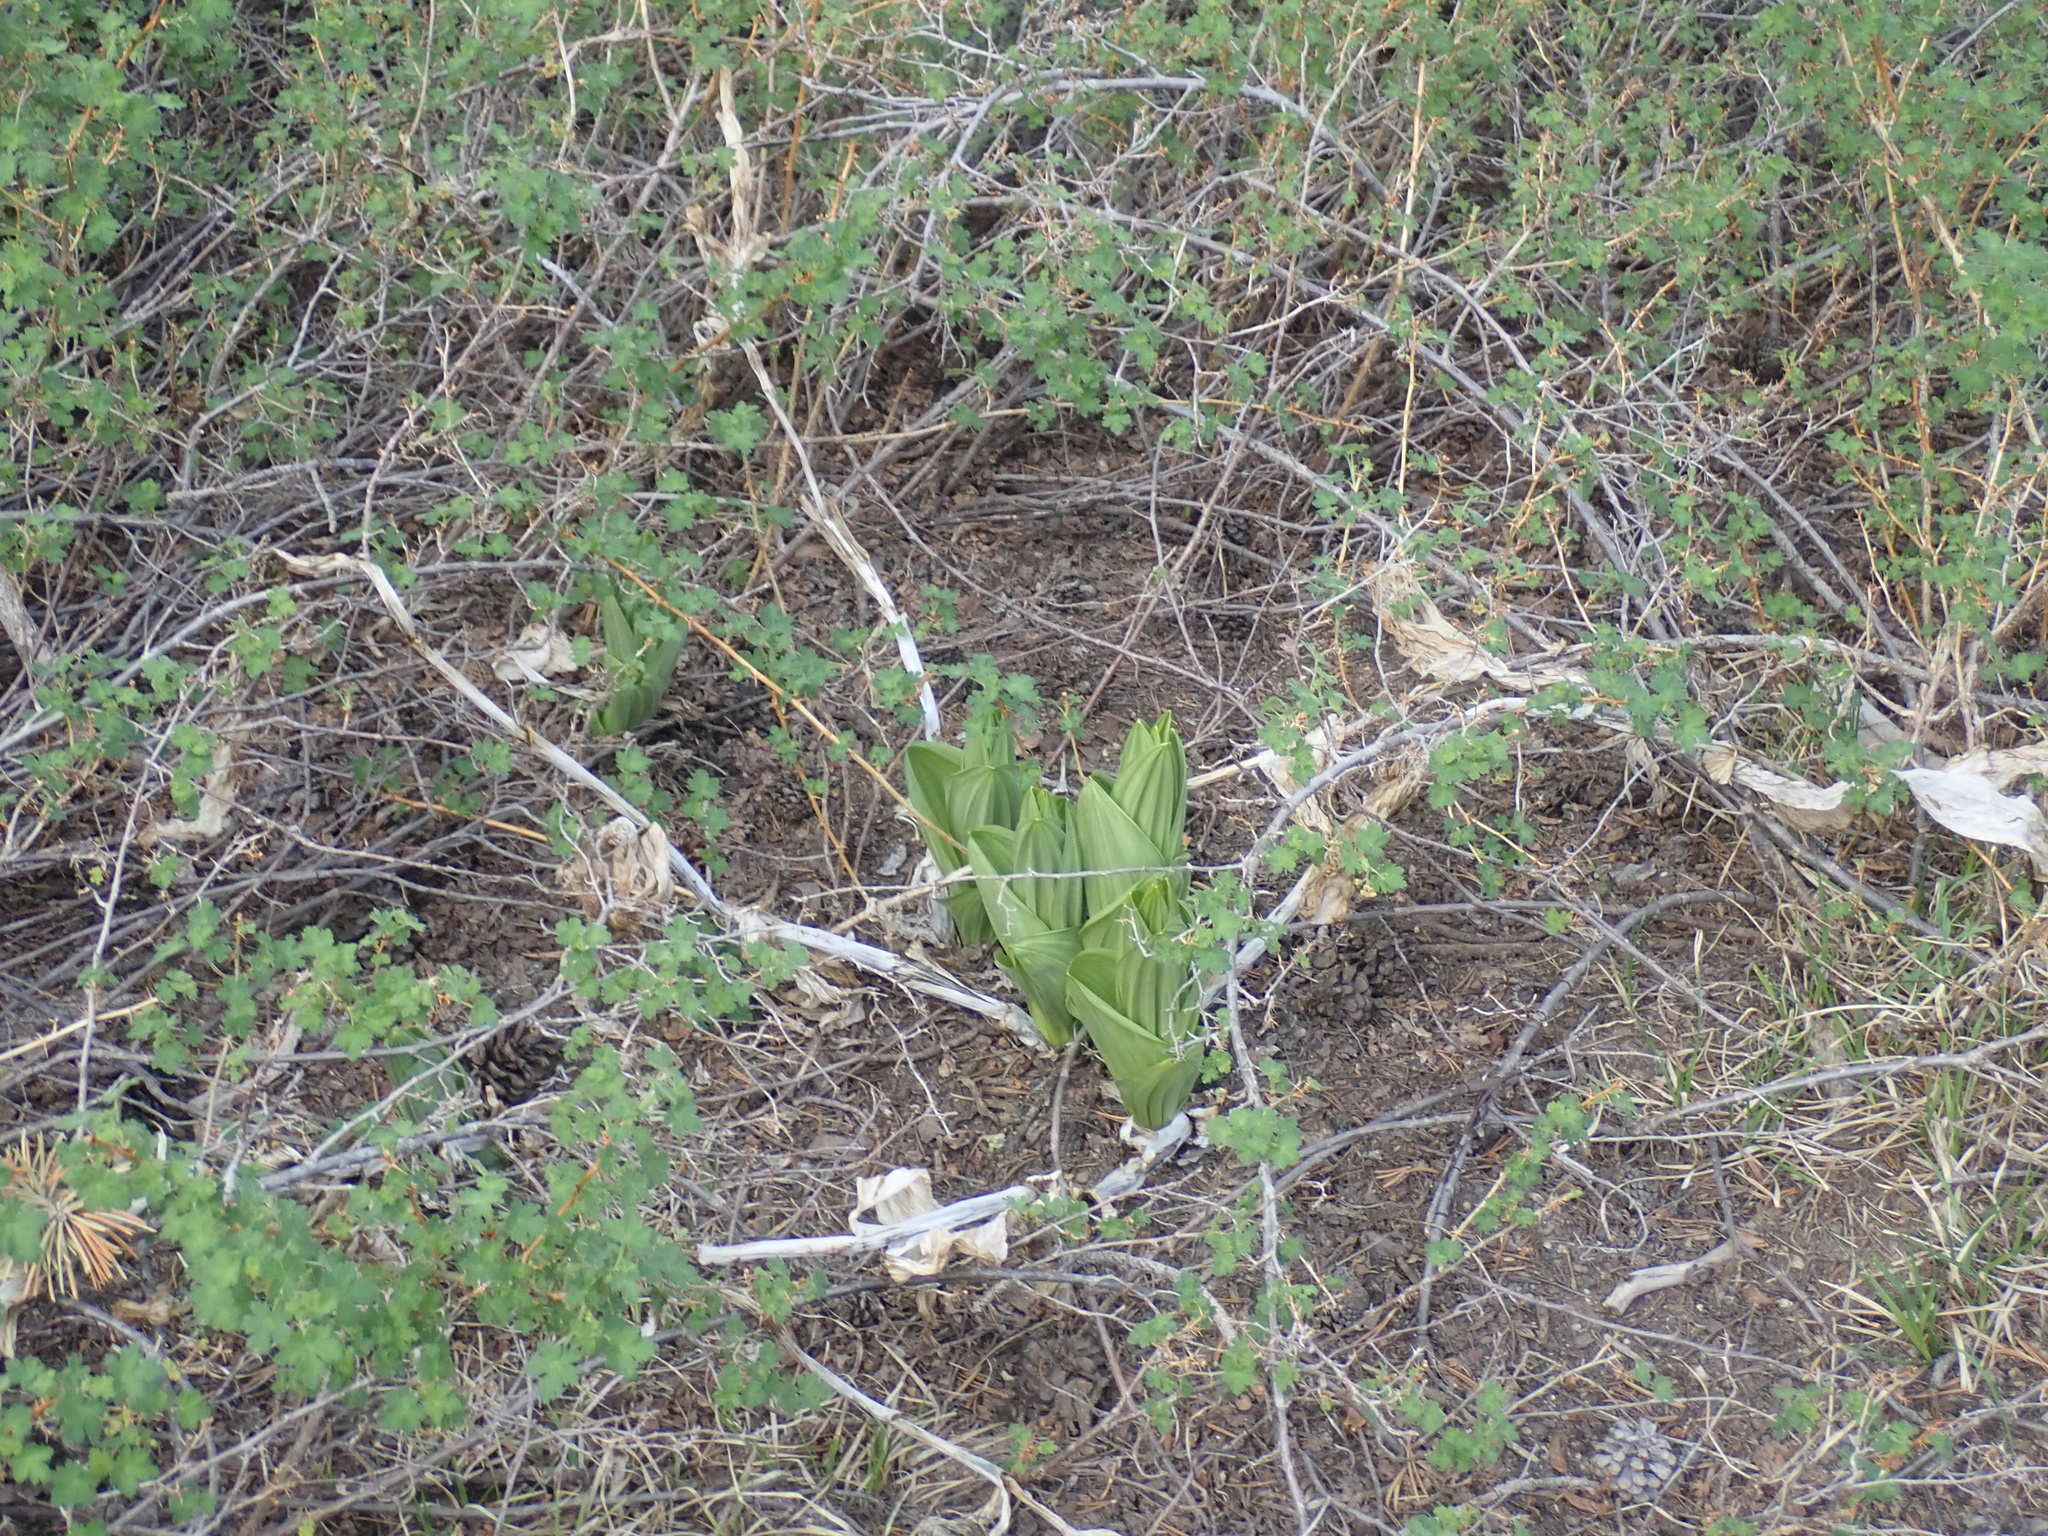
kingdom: Plantae
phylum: Tracheophyta
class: Liliopsida
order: Liliales
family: Melanthiaceae
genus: Veratrum
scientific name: Veratrum californicum
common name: California veratrum
